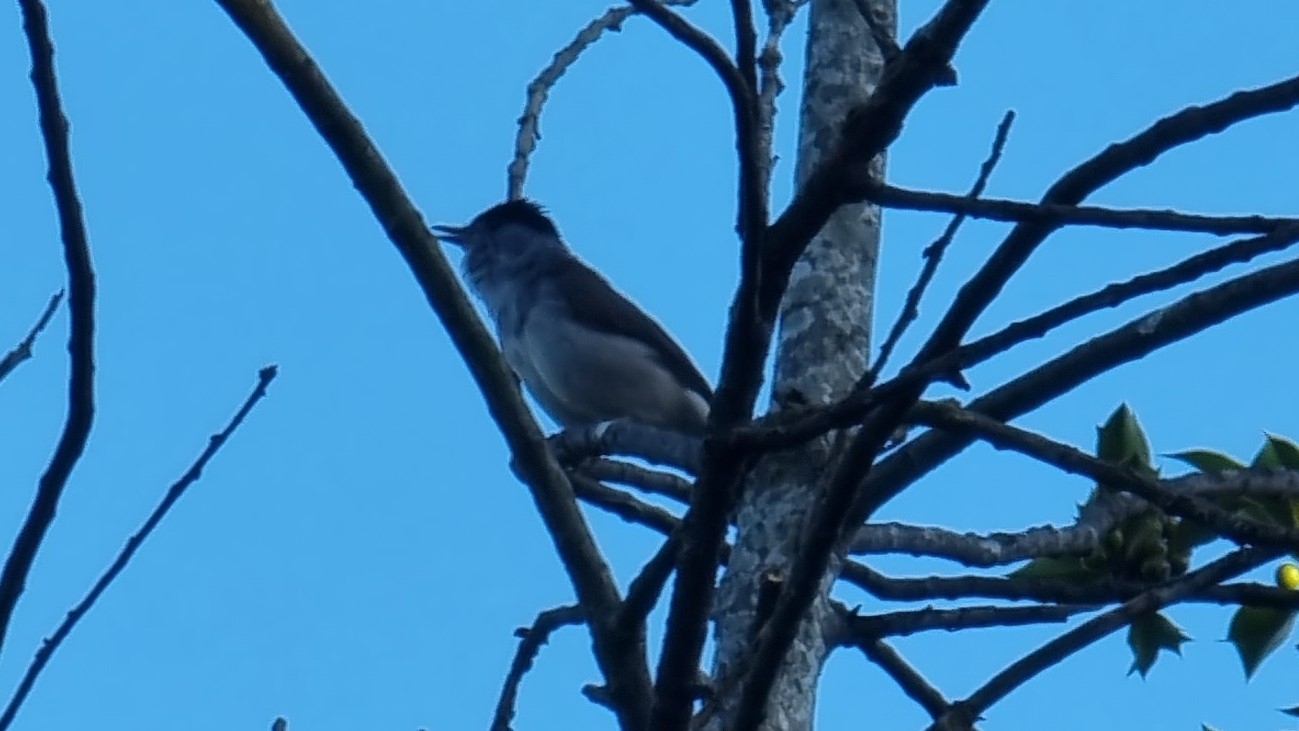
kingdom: Animalia
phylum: Chordata
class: Aves
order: Passeriformes
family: Sylviidae
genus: Sylvia
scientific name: Sylvia atricapilla
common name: Eurasian blackcap
